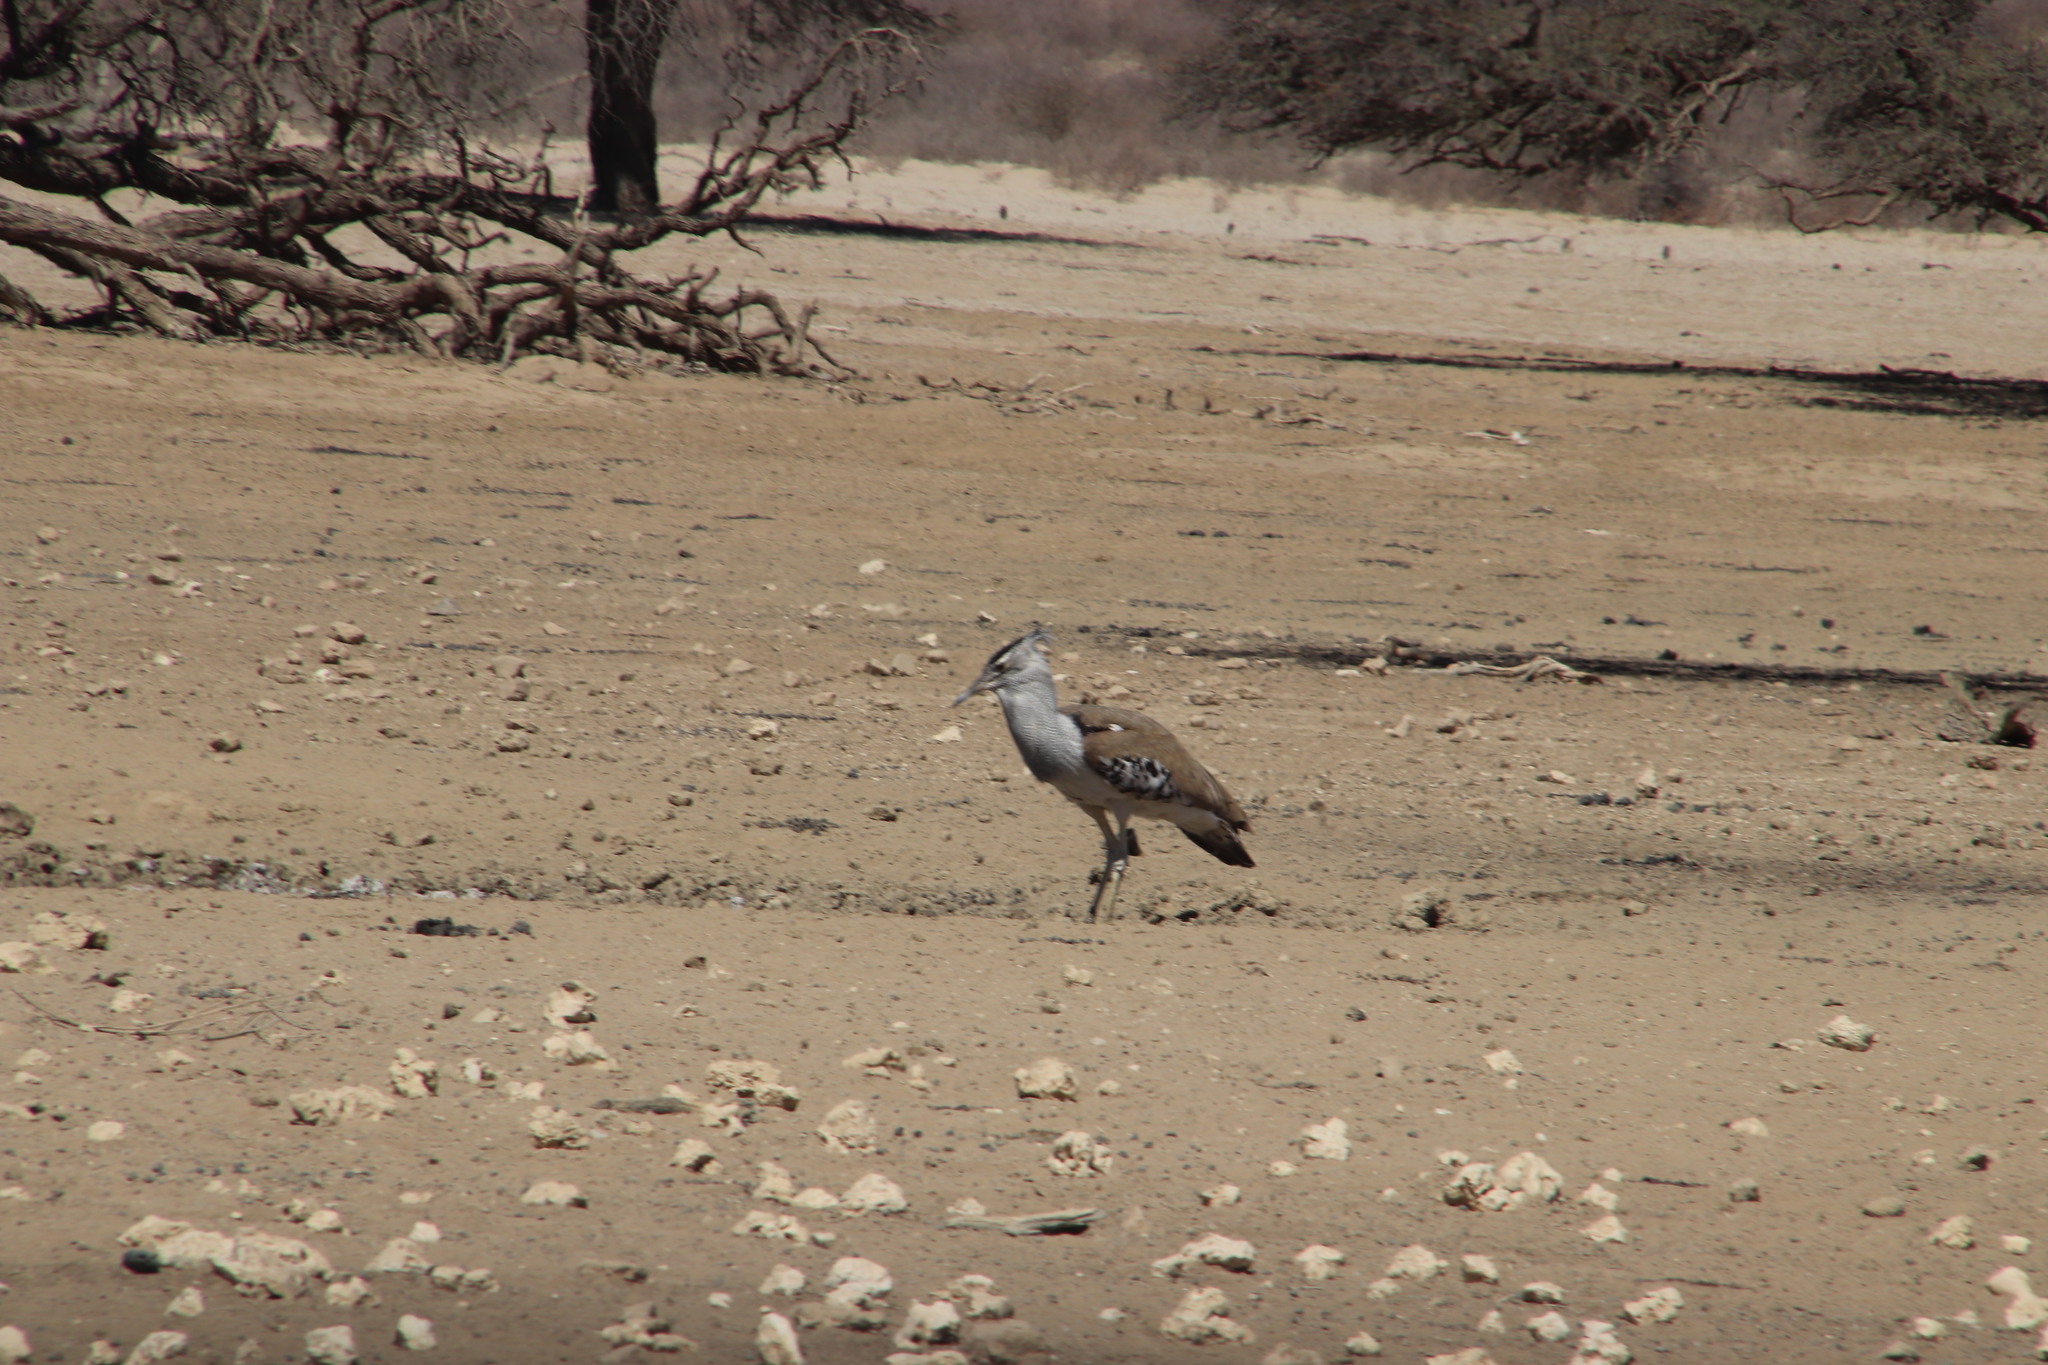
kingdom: Animalia
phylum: Chordata
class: Aves
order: Otidiformes
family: Otididae
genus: Ardeotis
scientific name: Ardeotis kori
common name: Kori bustard
